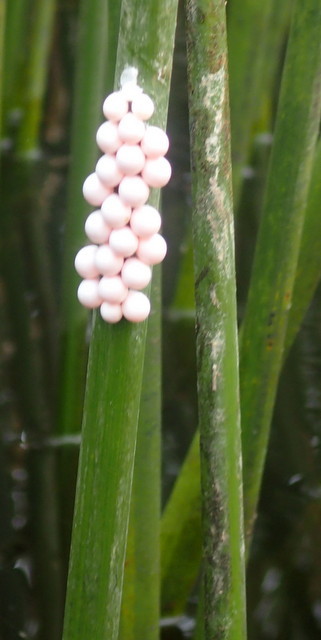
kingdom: Animalia
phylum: Mollusca
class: Gastropoda
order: Architaenioglossa
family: Ampullariidae
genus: Pomacea
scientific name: Pomacea paludosa
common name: Florida applesnail
